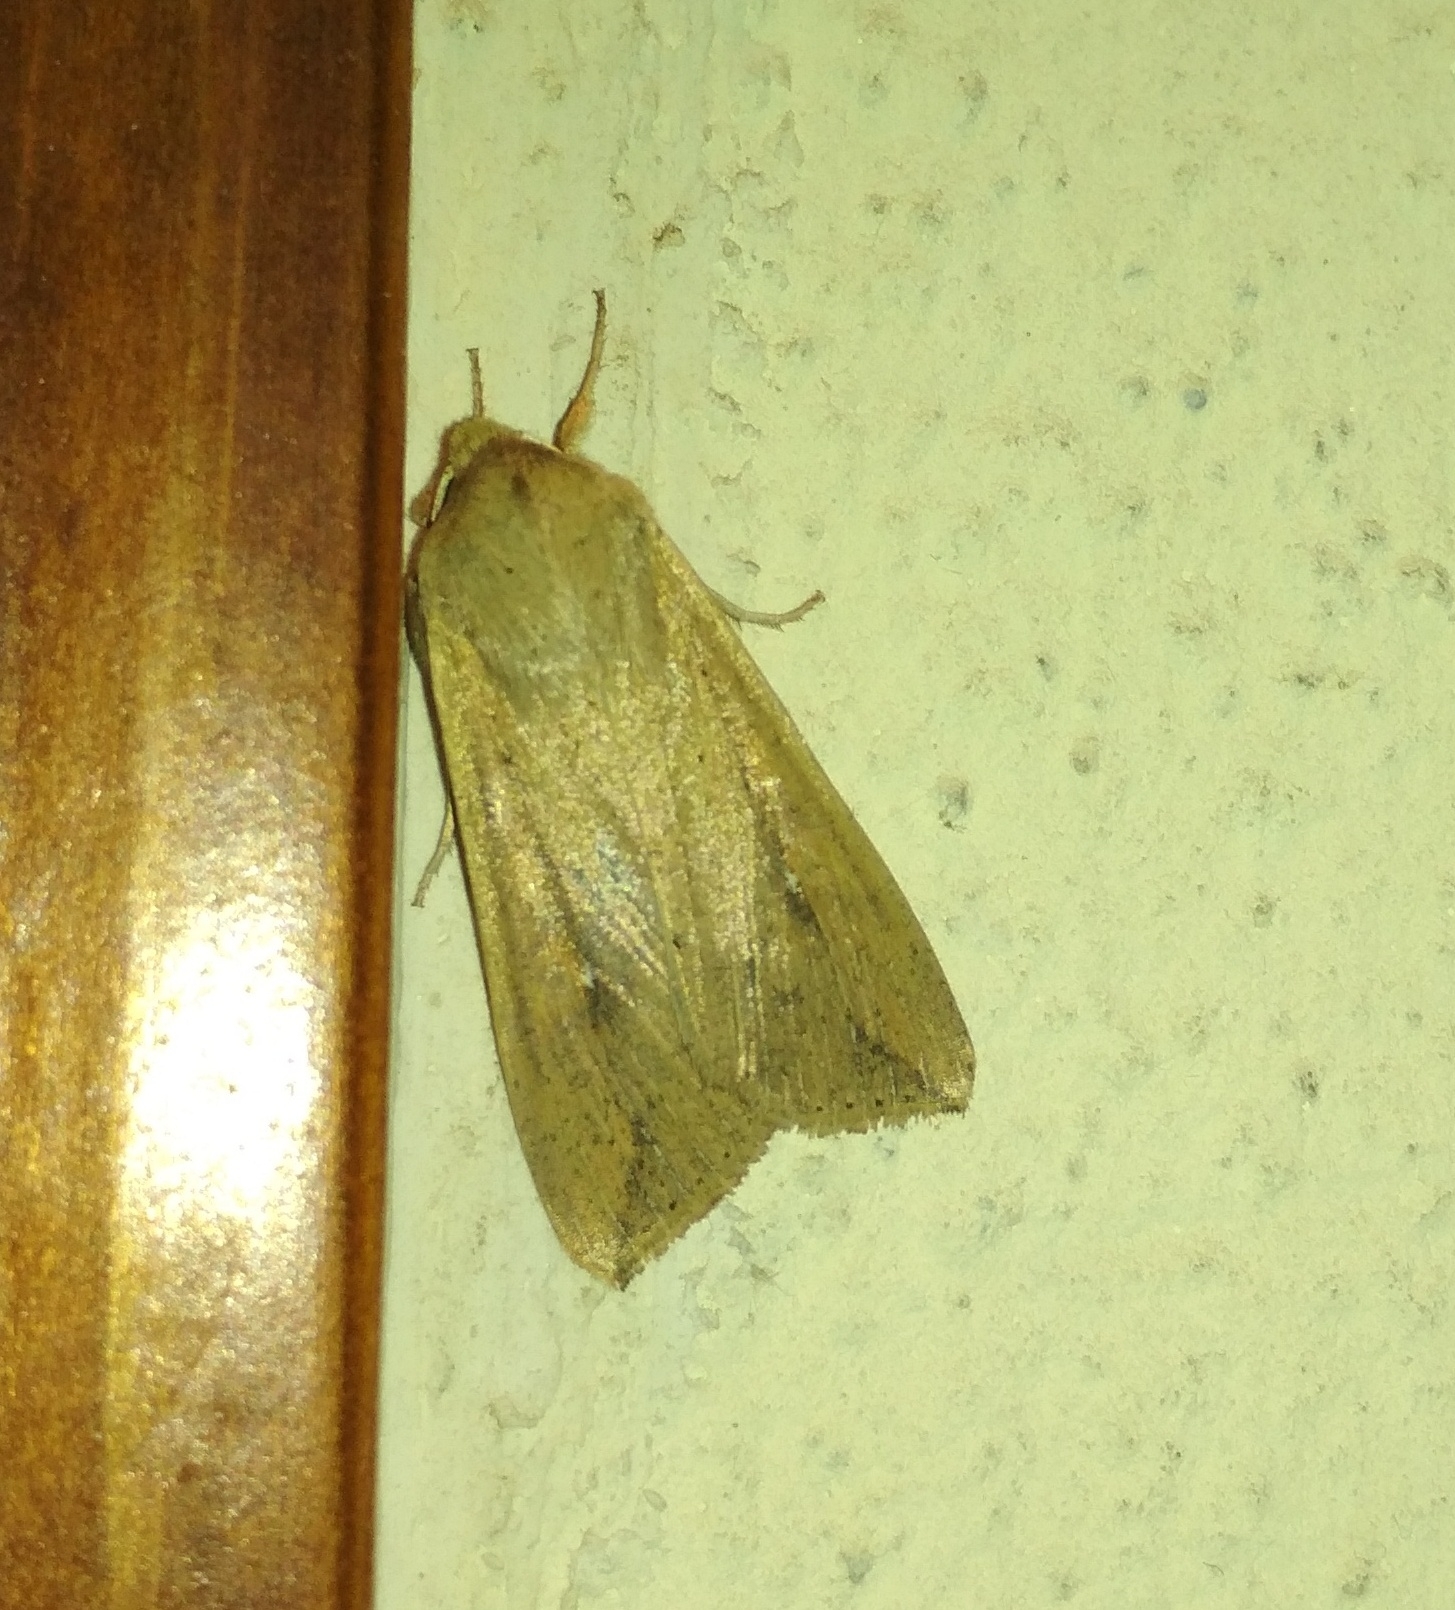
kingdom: Animalia
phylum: Arthropoda
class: Insecta
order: Lepidoptera
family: Noctuidae
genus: Mythimna
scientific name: Mythimna unipuncta
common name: White-speck
